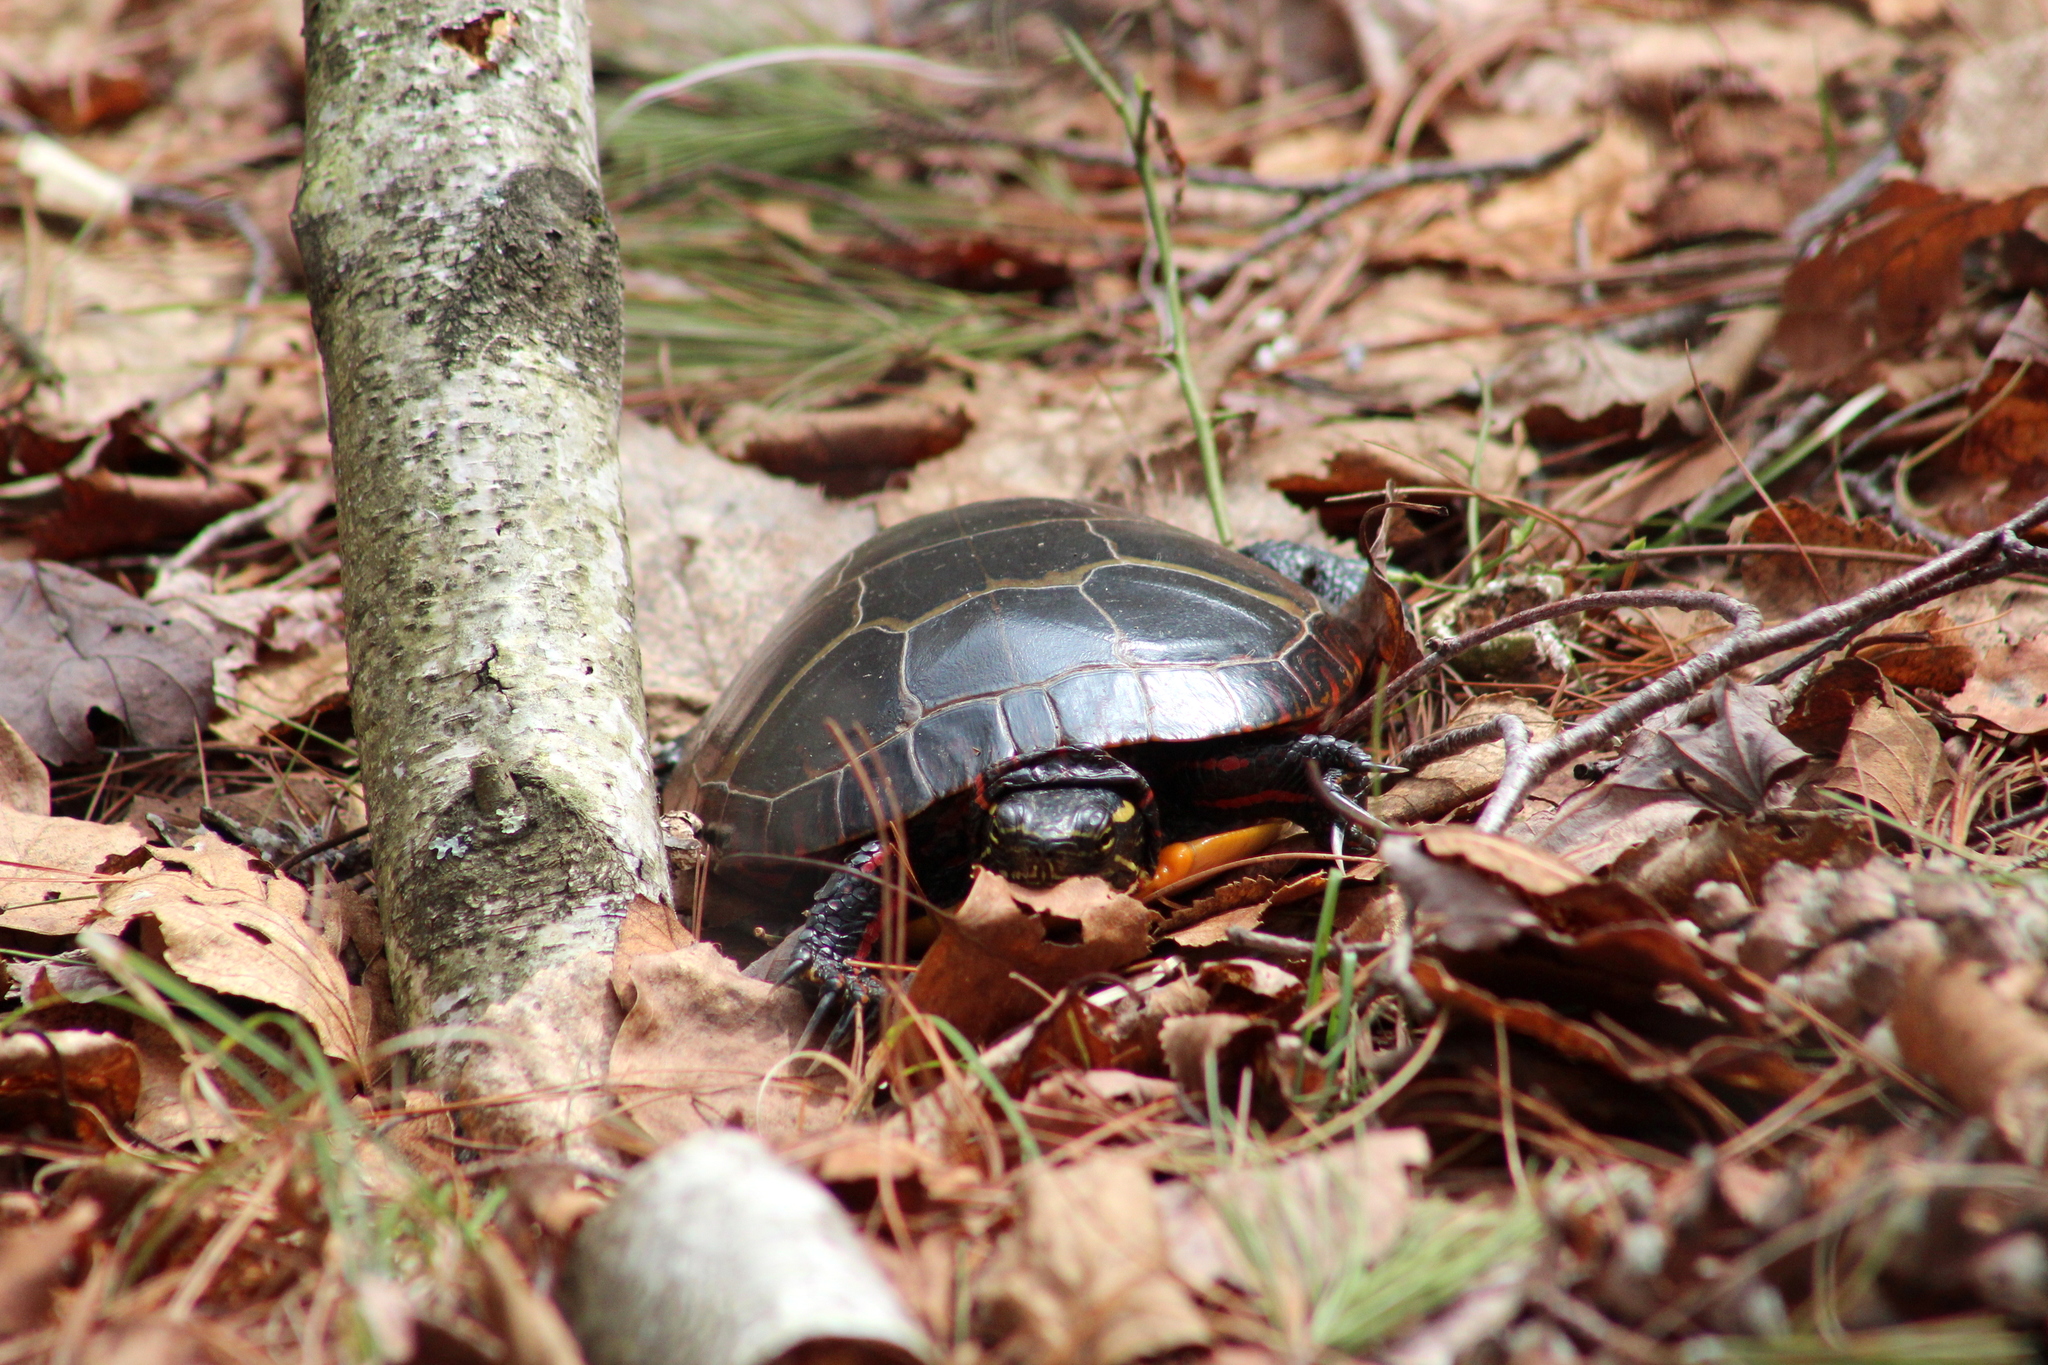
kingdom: Animalia
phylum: Chordata
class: Testudines
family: Emydidae
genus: Chrysemys
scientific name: Chrysemys picta
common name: Painted turtle
